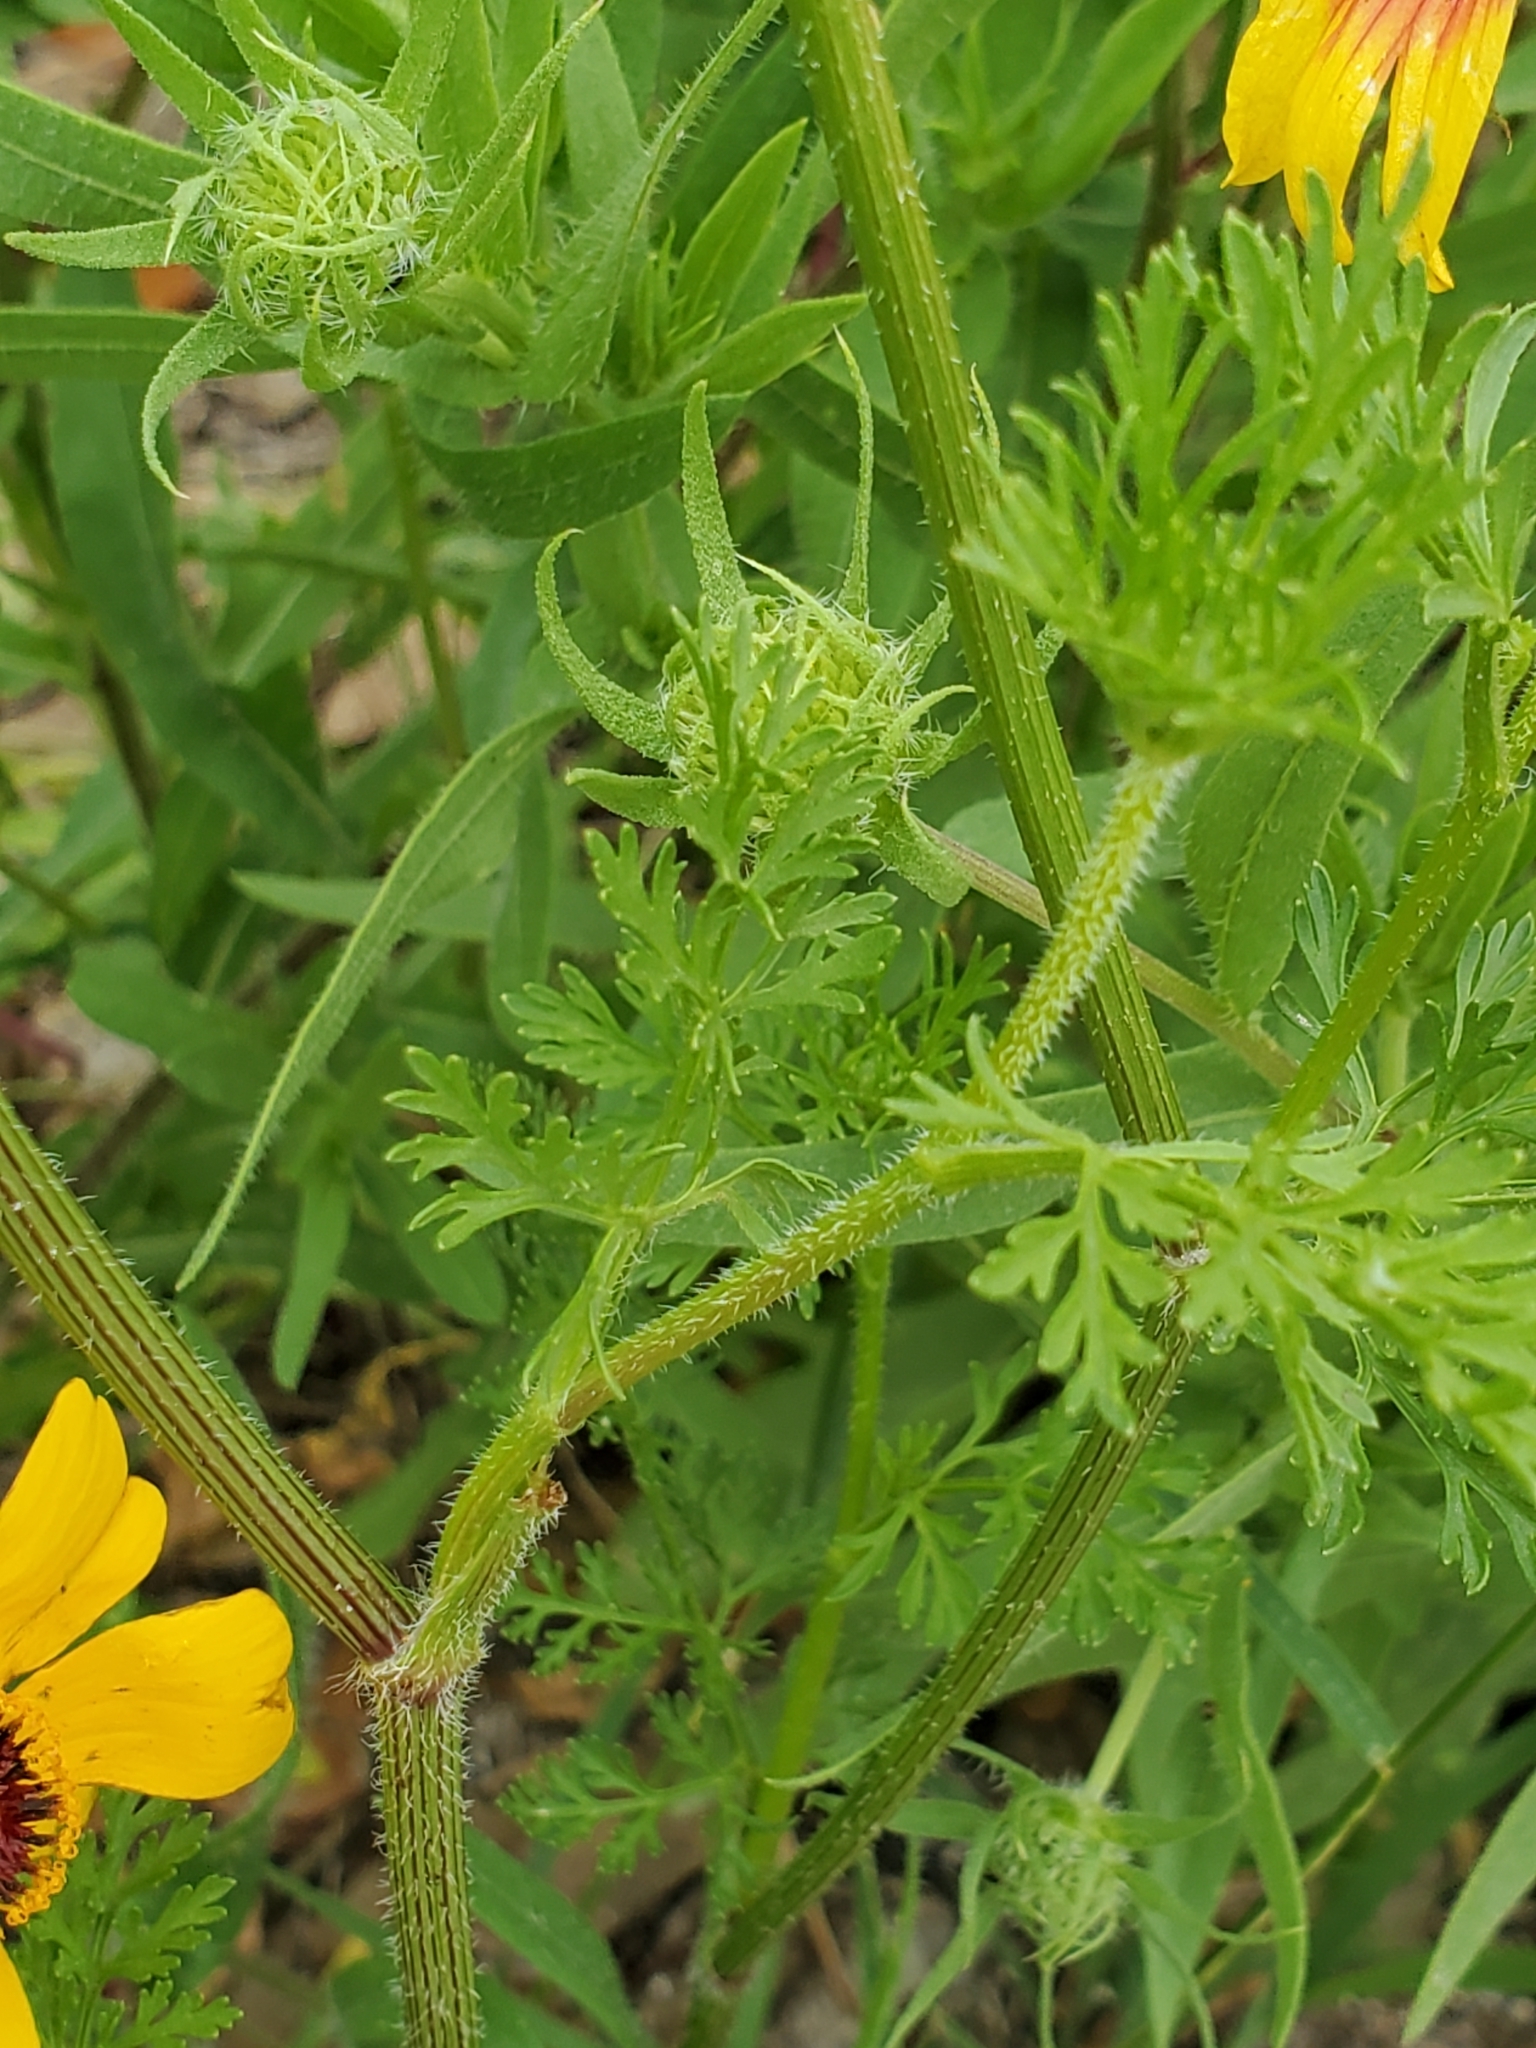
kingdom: Plantae
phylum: Tracheophyta
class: Magnoliopsida
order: Apiales
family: Apiaceae
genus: Daucus
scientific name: Daucus pusillus
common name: Southwest wild carrot
